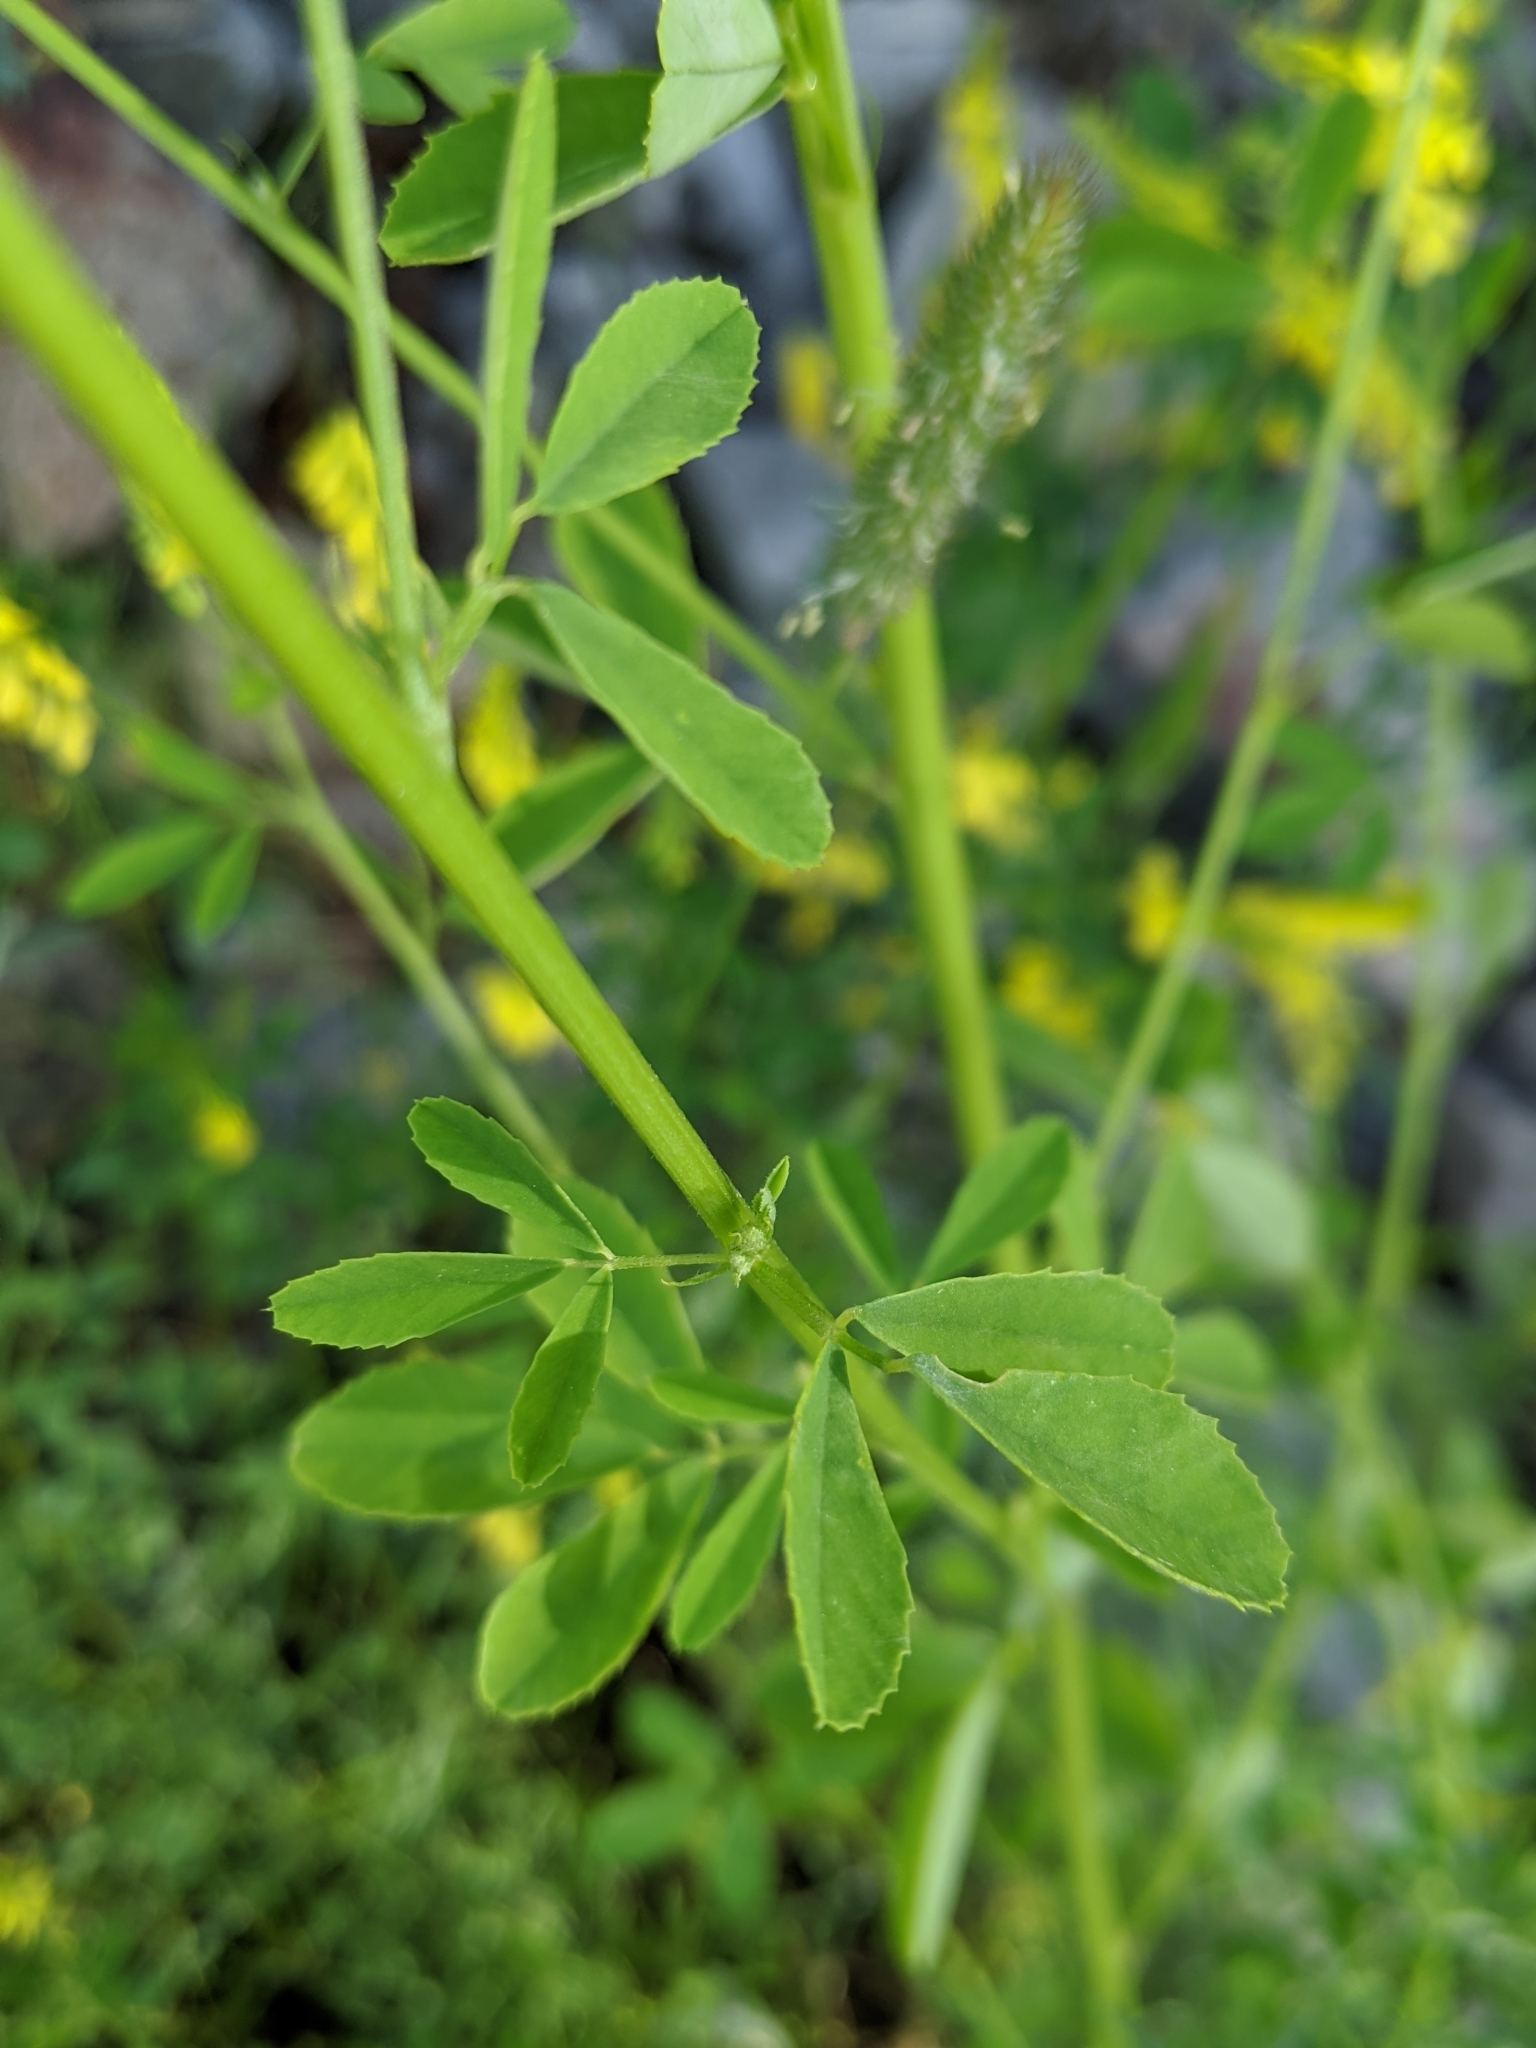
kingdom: Plantae
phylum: Tracheophyta
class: Magnoliopsida
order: Fabales
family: Fabaceae
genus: Melilotus
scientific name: Melilotus officinalis
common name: Sweetclover
